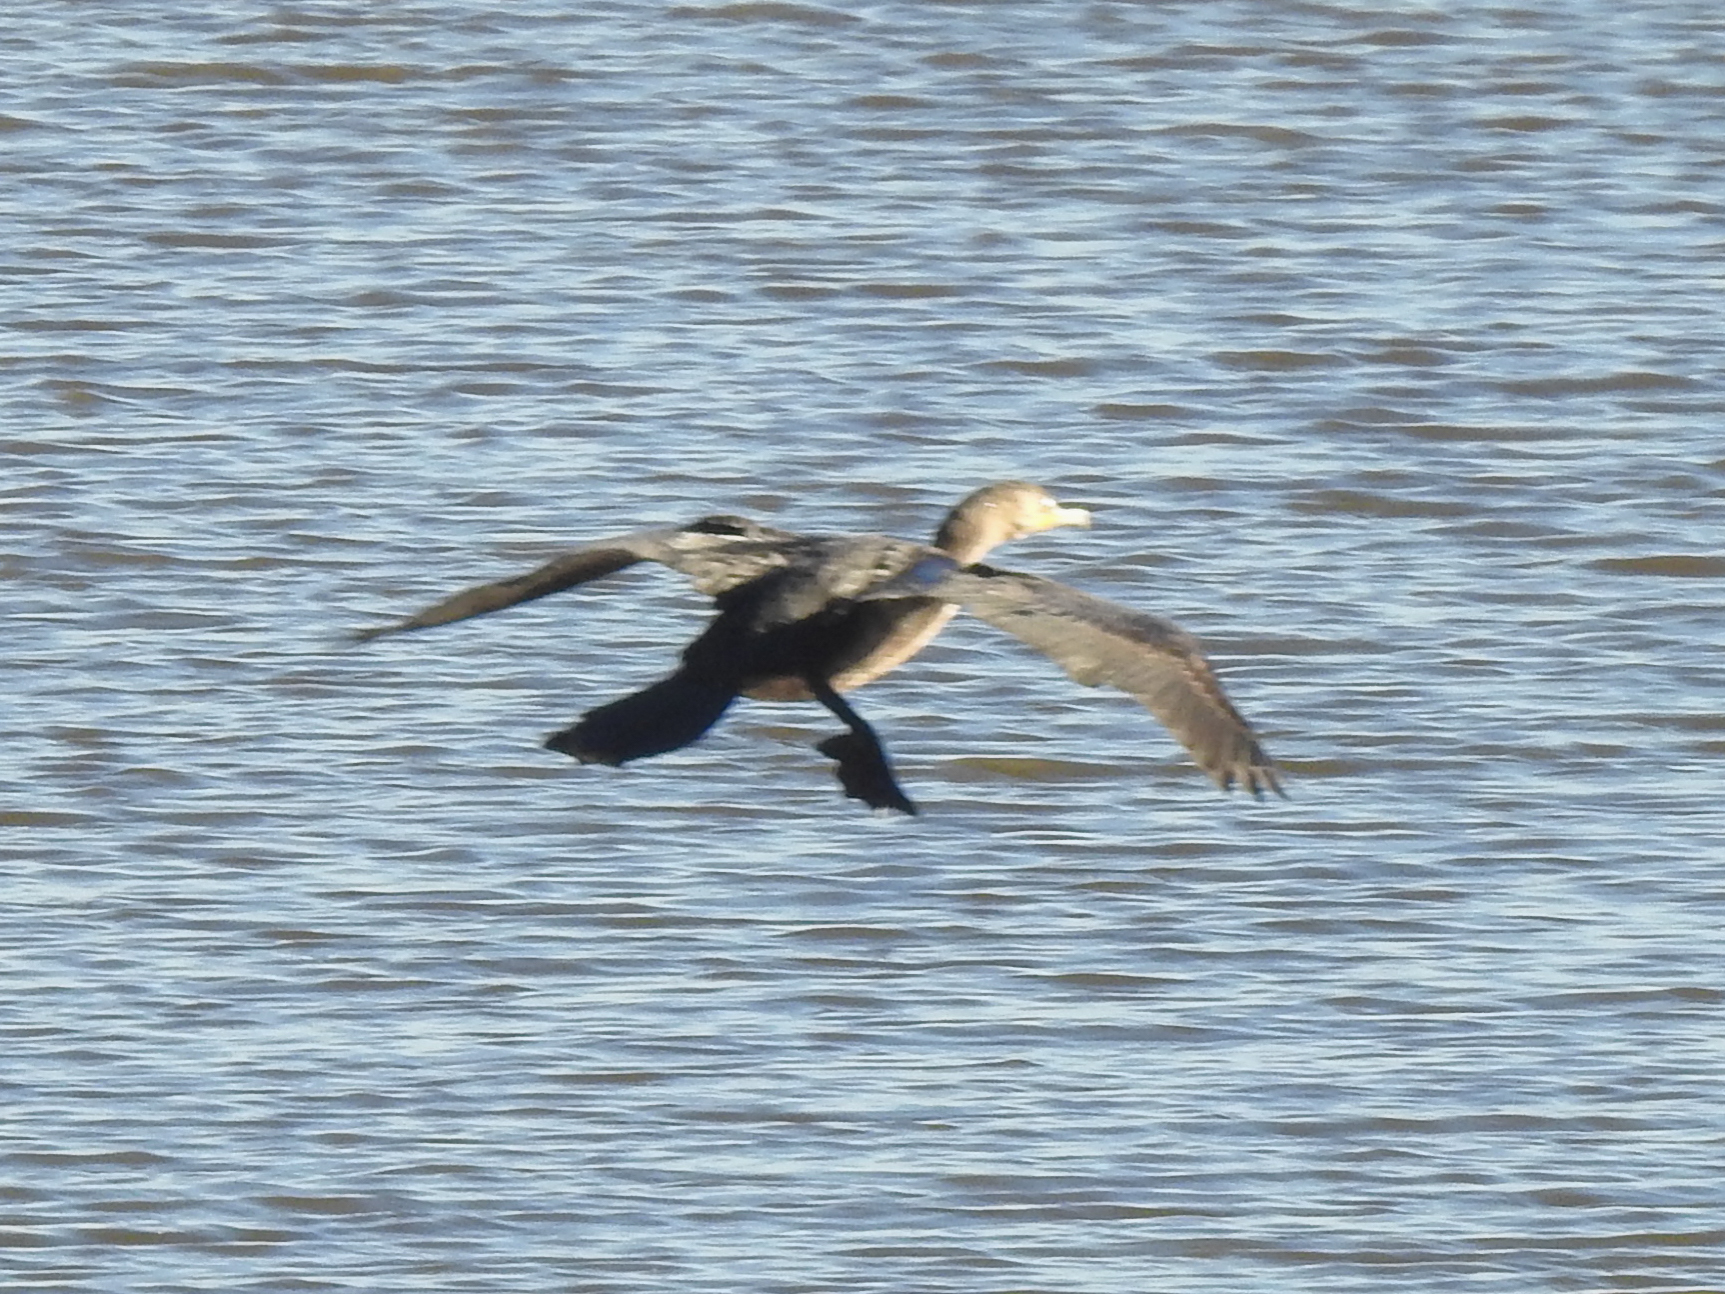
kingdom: Animalia
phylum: Chordata
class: Aves
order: Suliformes
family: Phalacrocoracidae
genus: Phalacrocorax
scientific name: Phalacrocorax auritus
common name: Double-crested cormorant
